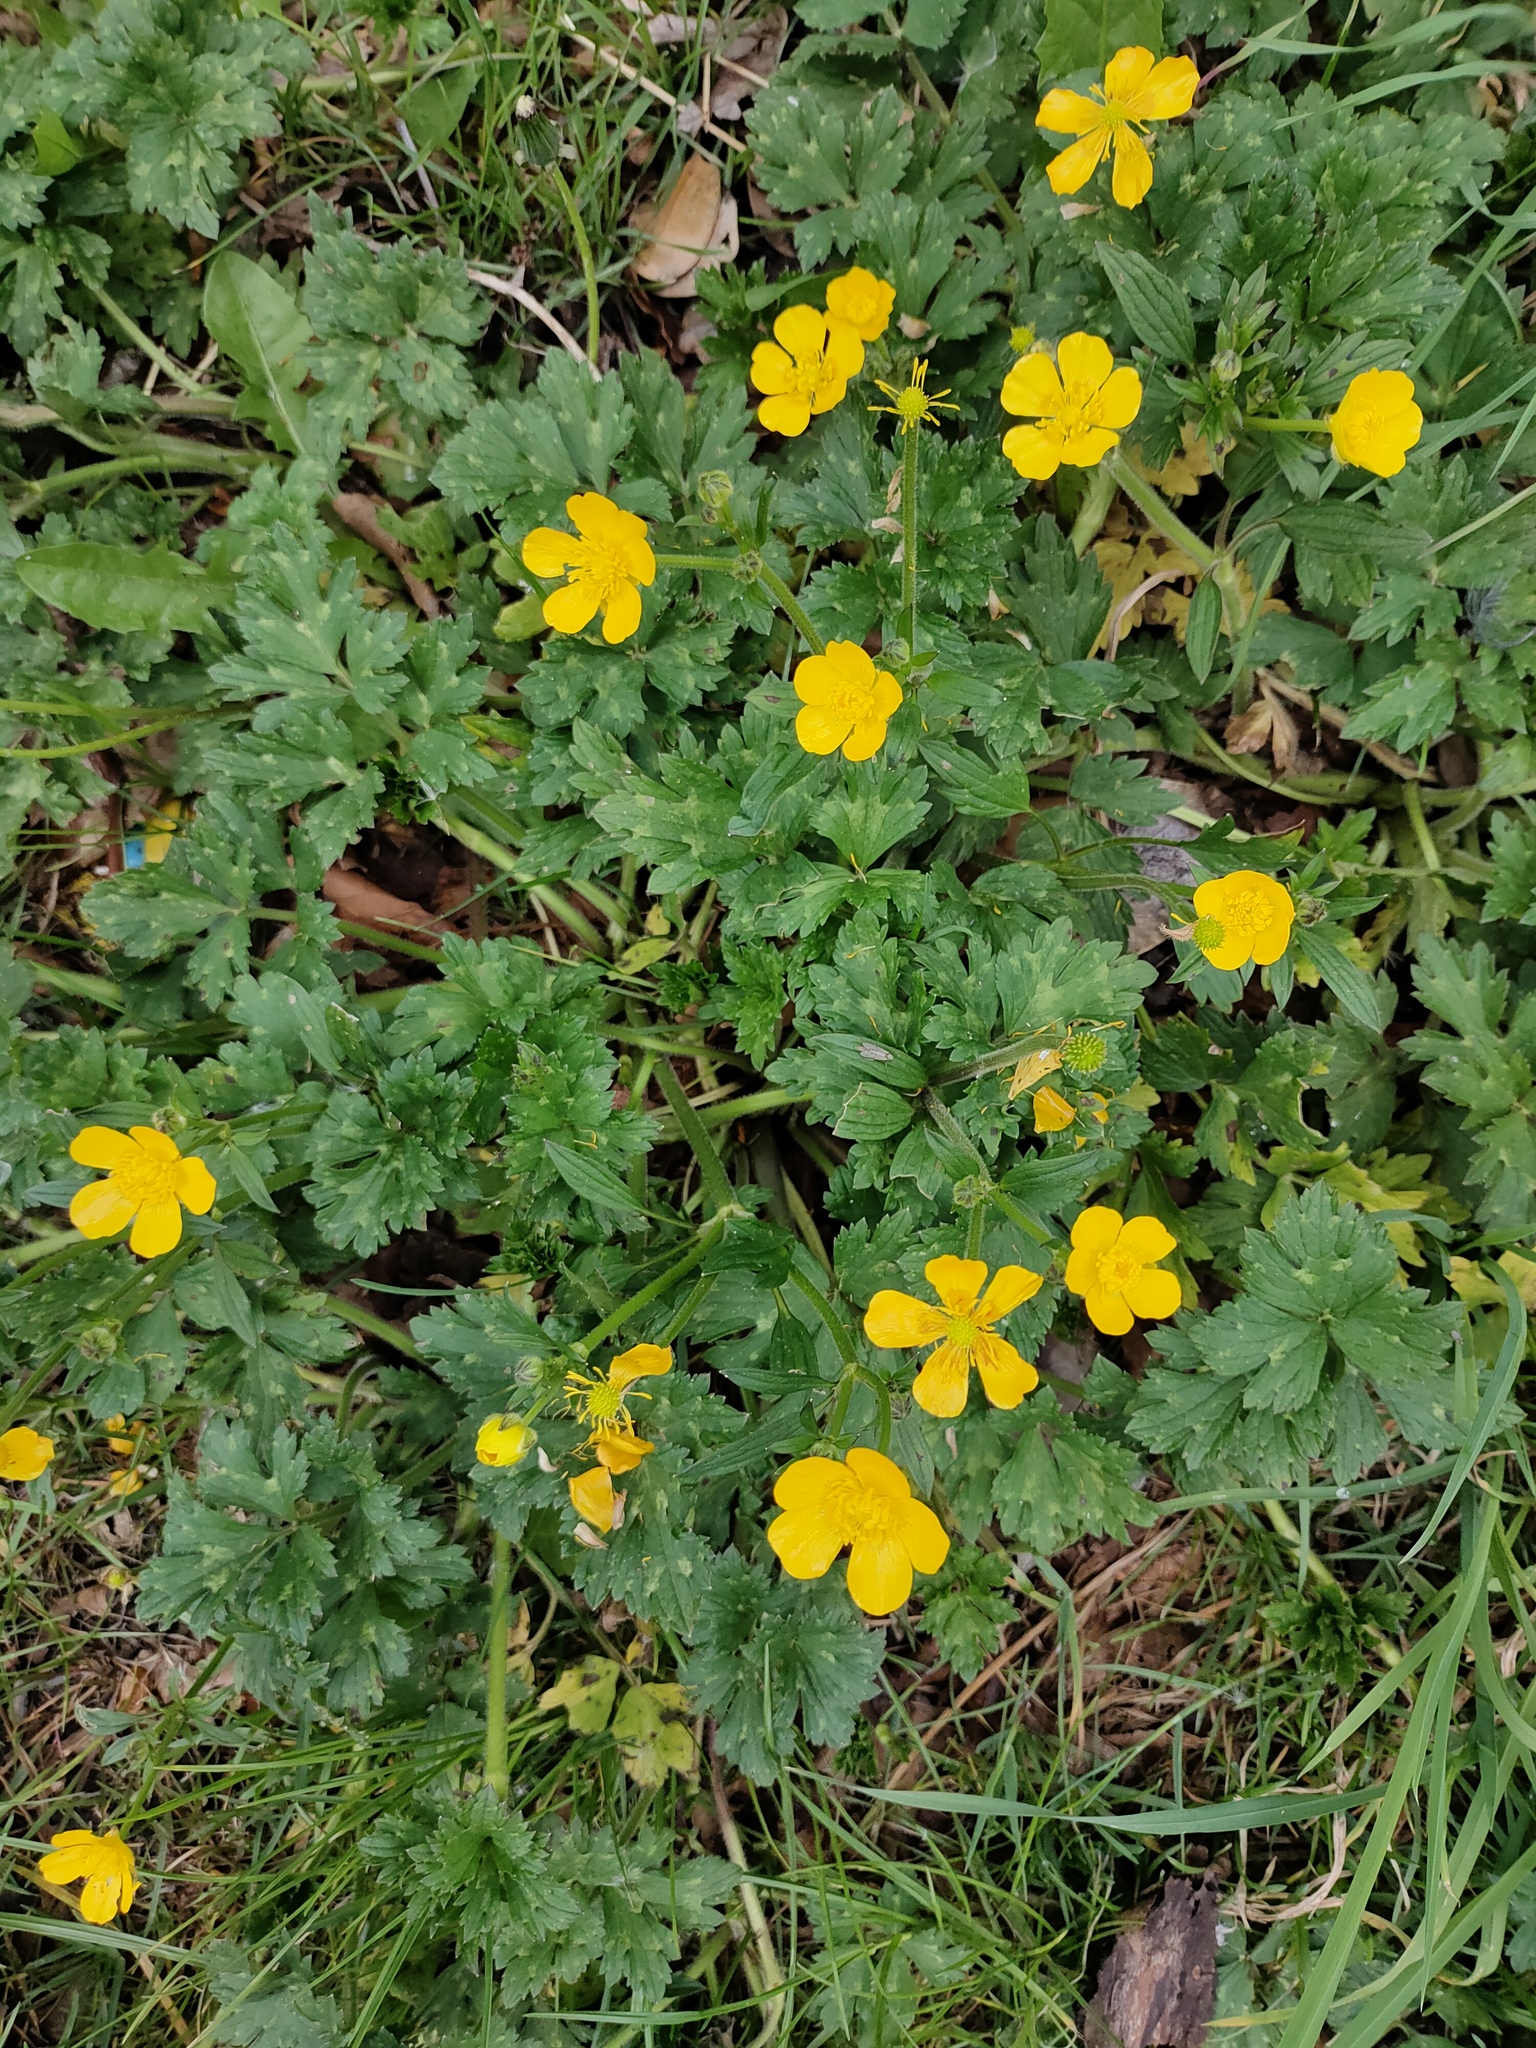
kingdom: Plantae
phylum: Tracheophyta
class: Magnoliopsida
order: Ranunculales
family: Ranunculaceae
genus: Ranunculus
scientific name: Ranunculus repens
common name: Creeping buttercup
